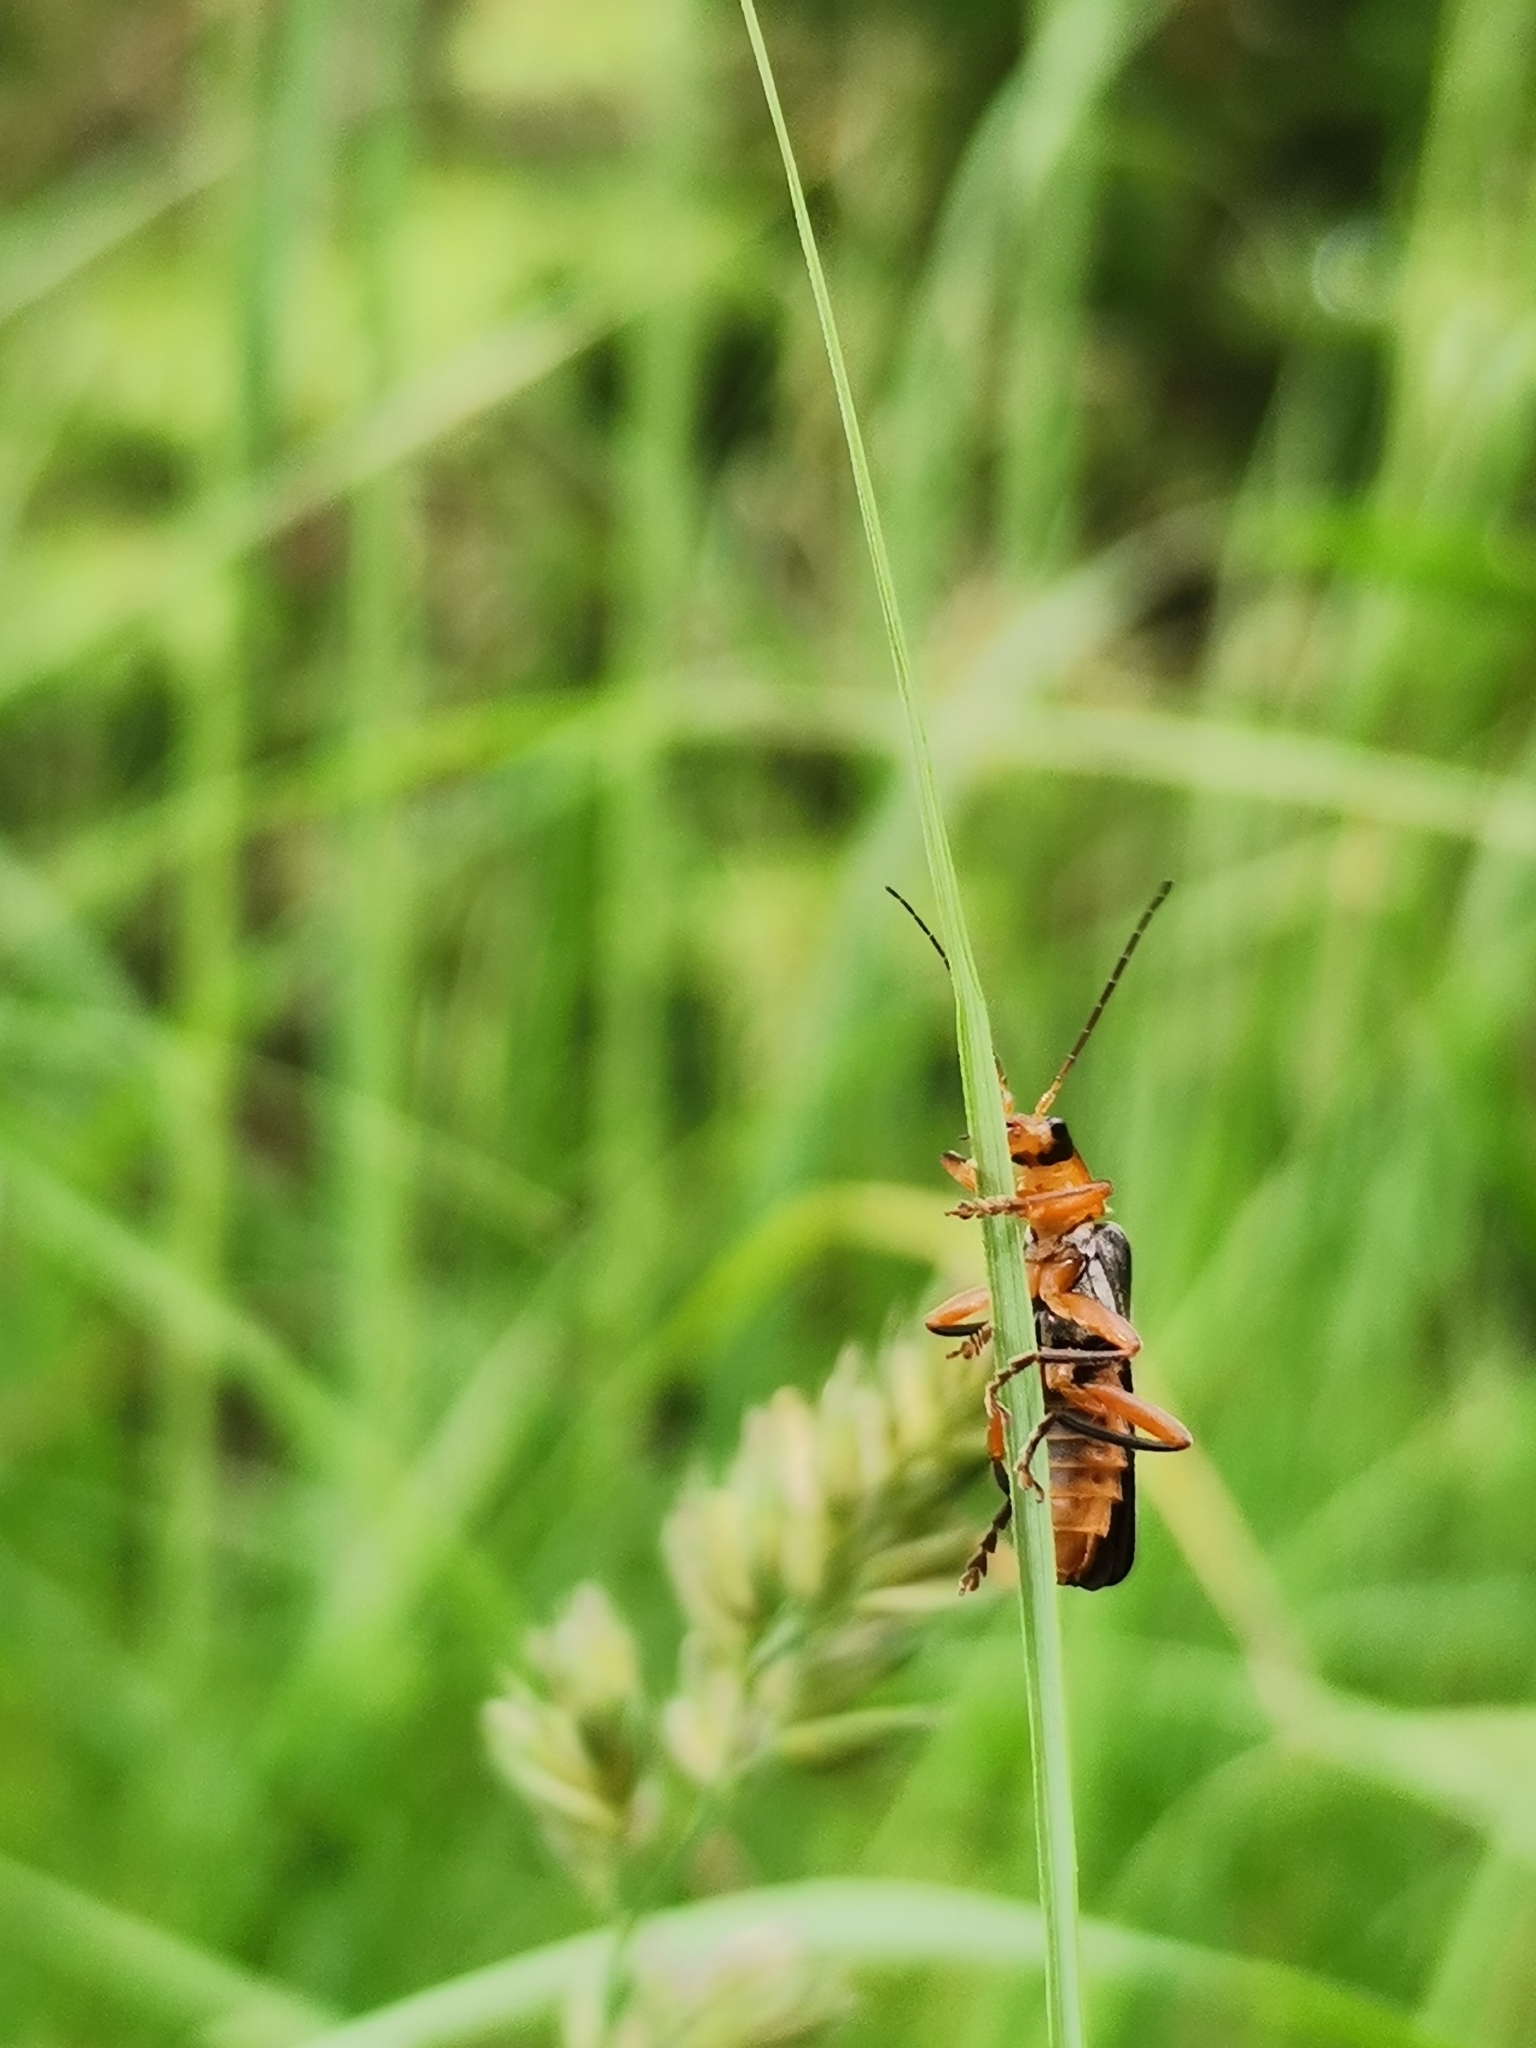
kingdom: Animalia
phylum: Arthropoda
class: Insecta
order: Coleoptera
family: Cantharidae
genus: Cantharis
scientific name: Cantharis pellucida
